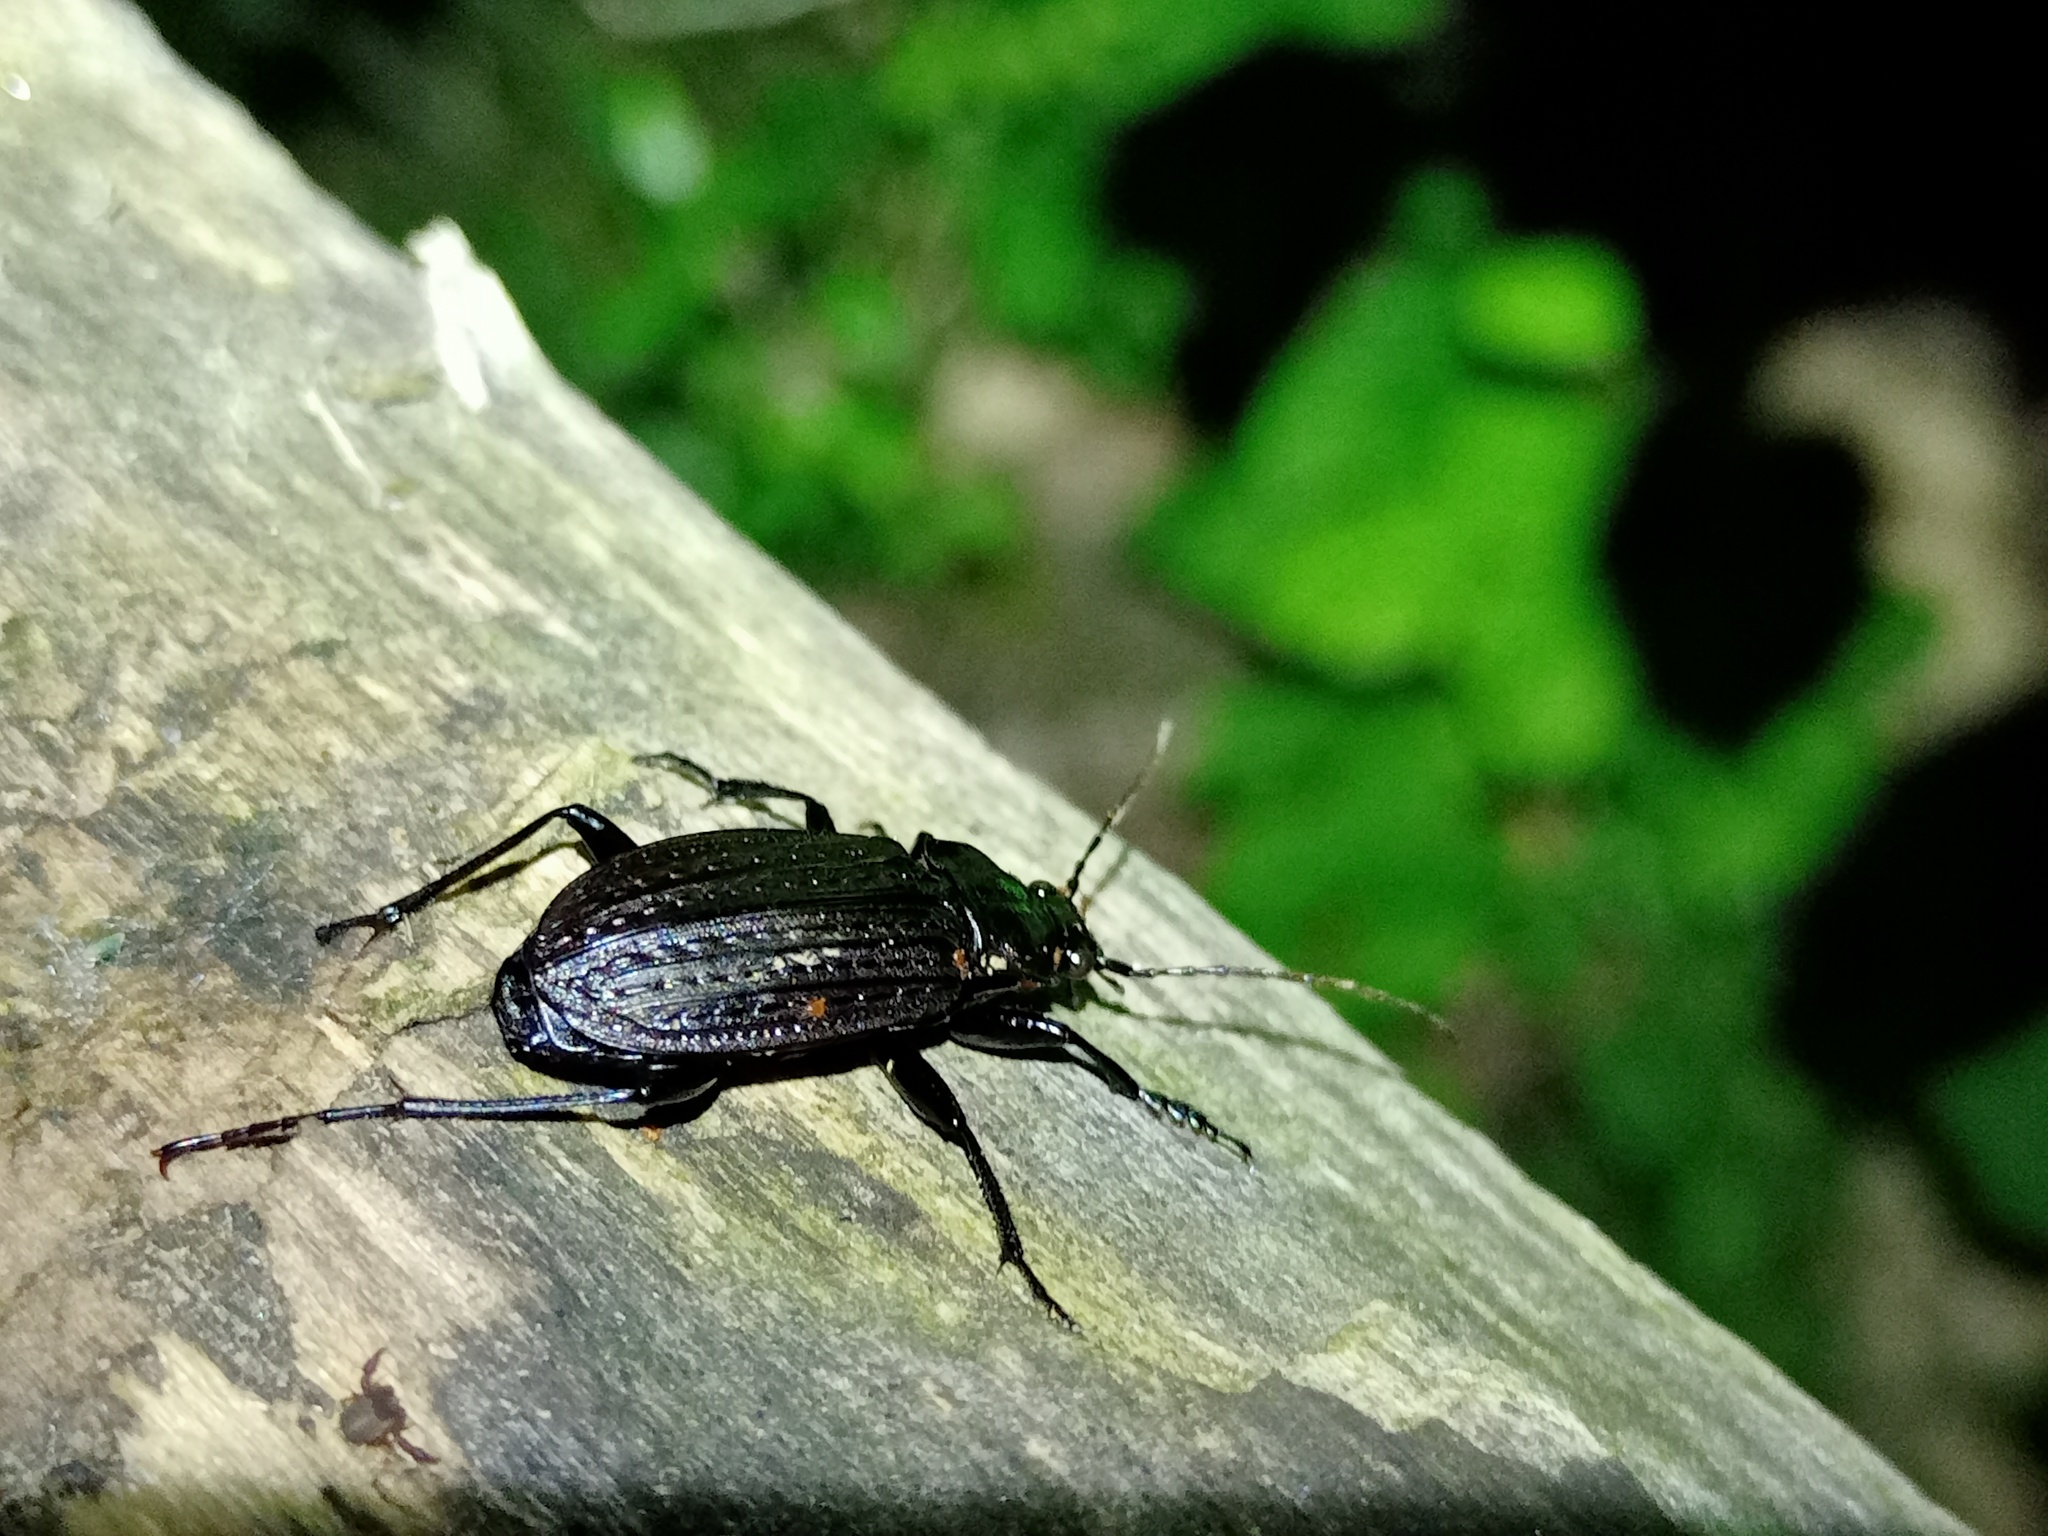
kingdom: Animalia
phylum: Arthropoda
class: Insecta
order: Coleoptera
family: Carabidae
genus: Carabus
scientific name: Carabus granulatus
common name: Granulate ground beetle
